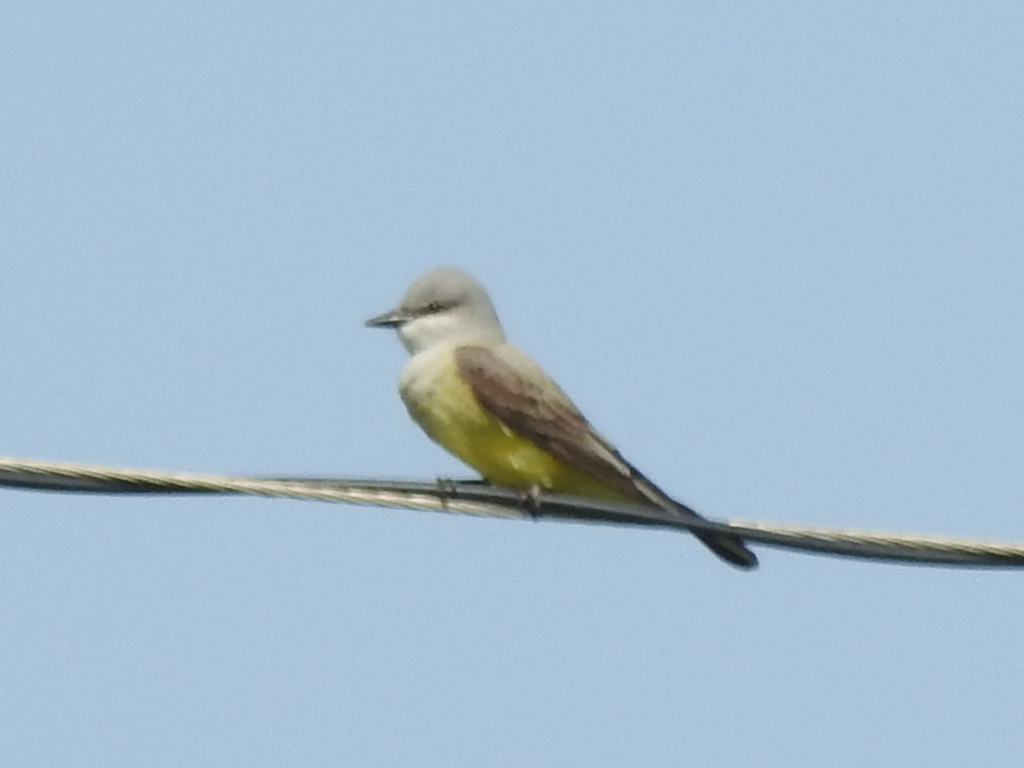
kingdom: Animalia
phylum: Chordata
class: Aves
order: Passeriformes
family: Tyrannidae
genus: Tyrannus
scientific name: Tyrannus verticalis
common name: Western kingbird
